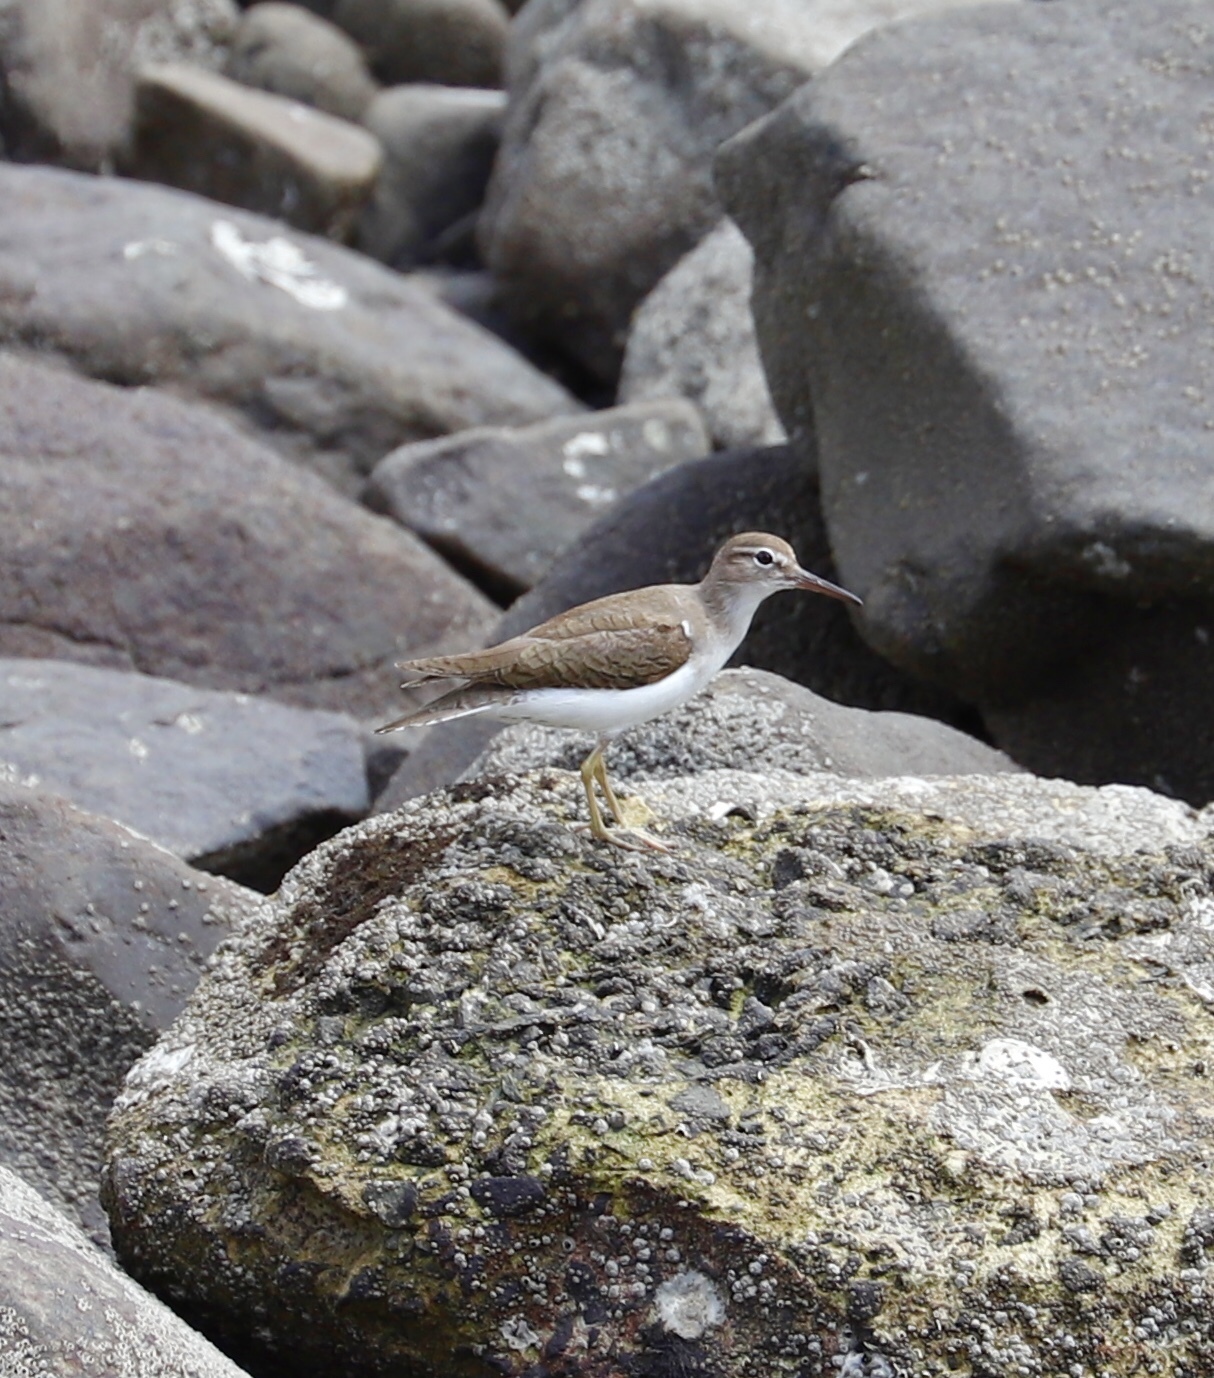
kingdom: Animalia
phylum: Chordata
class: Aves
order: Charadriiformes
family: Scolopacidae
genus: Actitis
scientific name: Actitis macularius
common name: Spotted sandpiper
